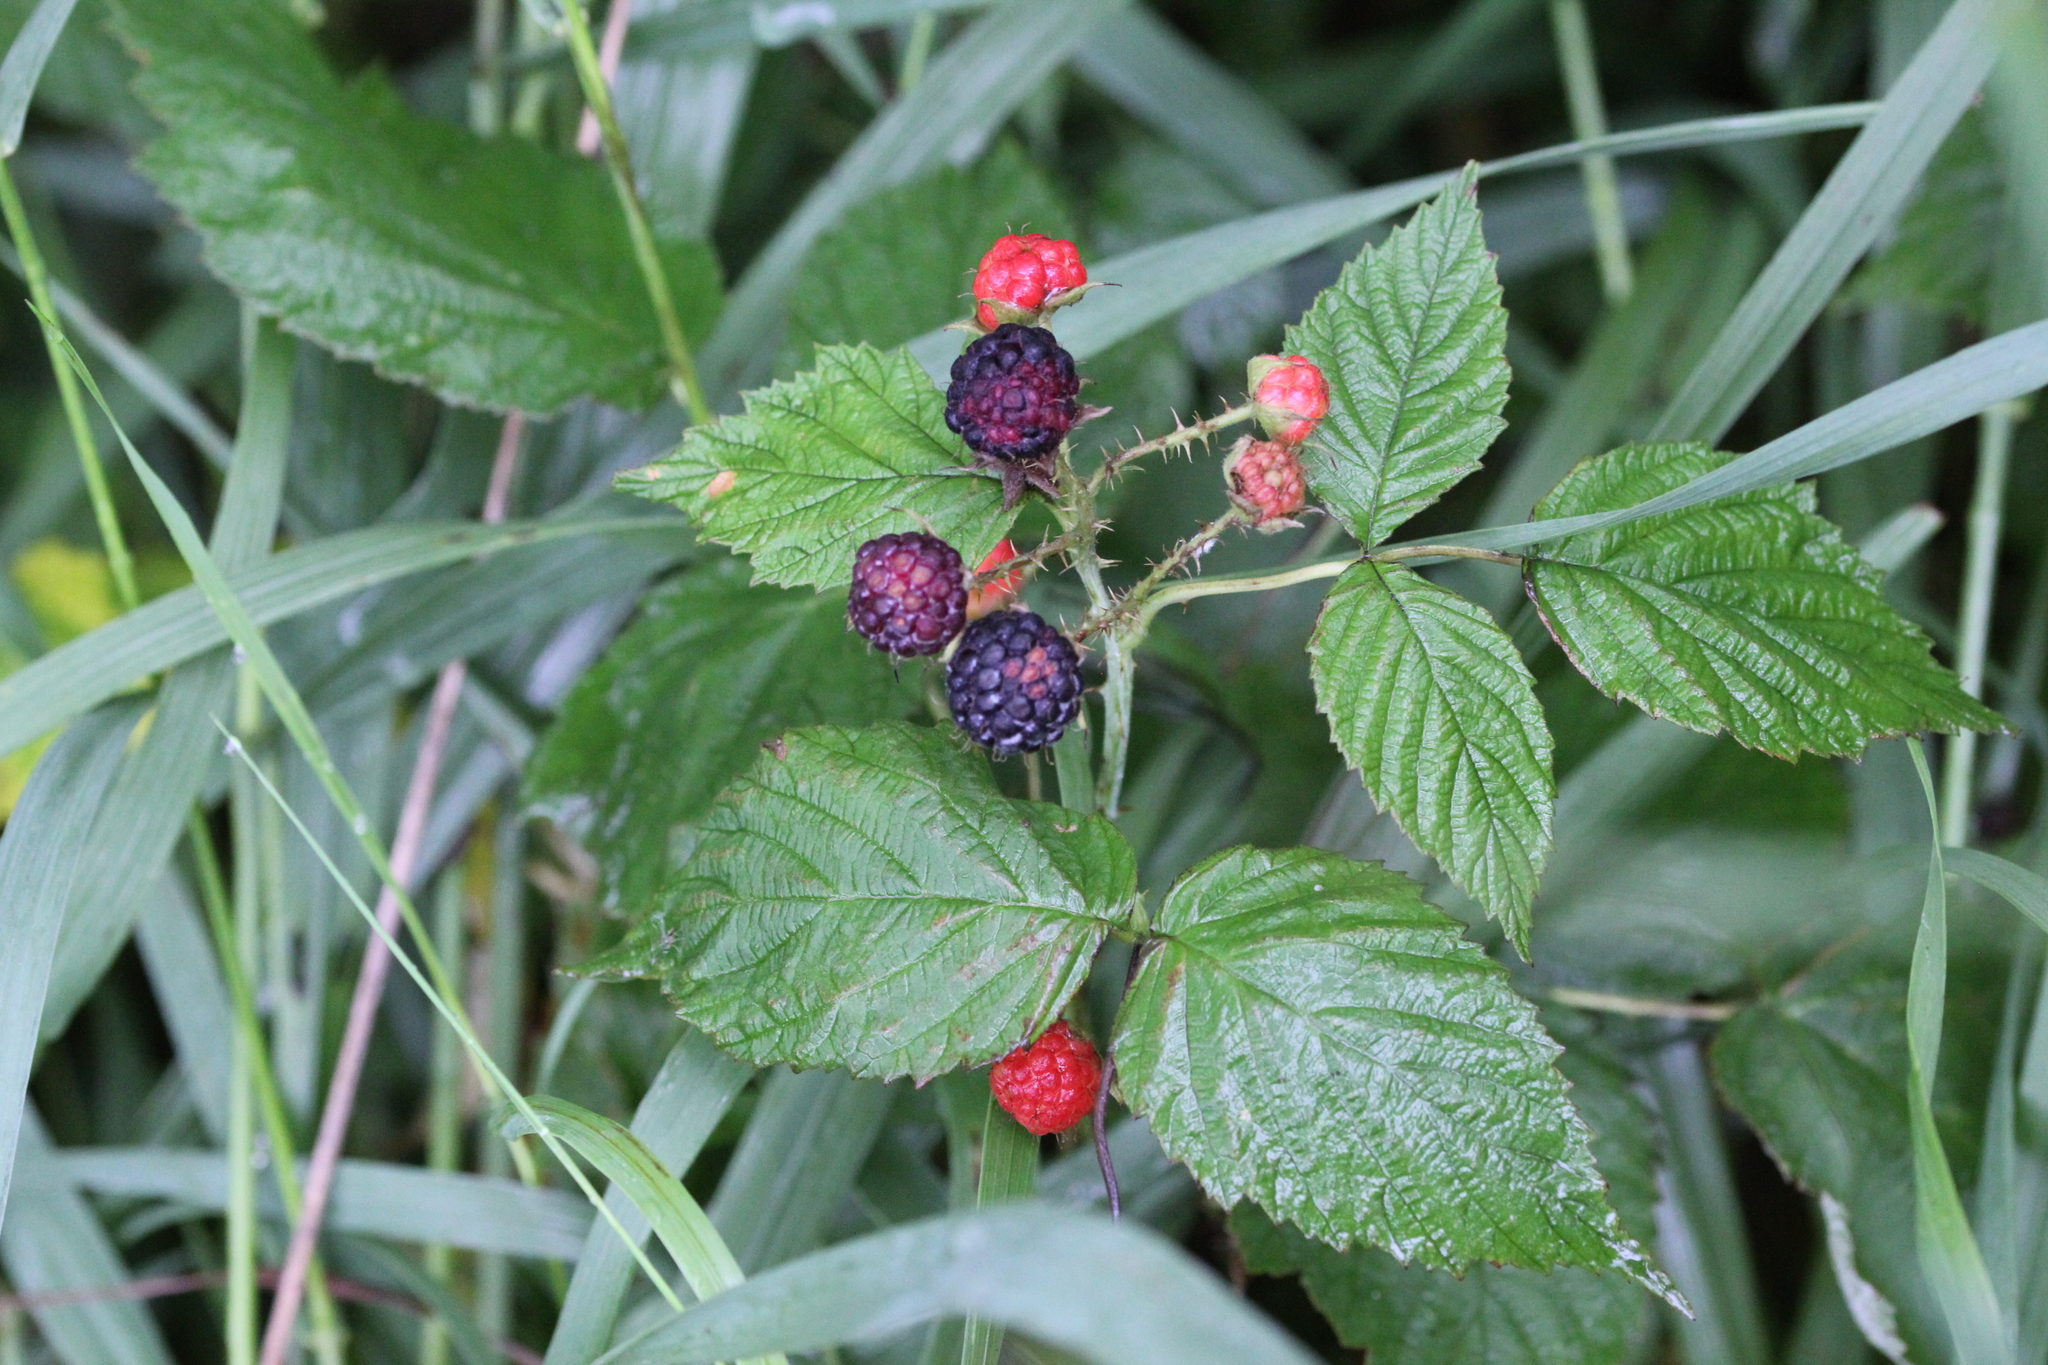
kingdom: Plantae
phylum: Tracheophyta
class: Magnoliopsida
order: Rosales
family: Rosaceae
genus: Rubus
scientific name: Rubus occidentalis
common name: Black raspberry
